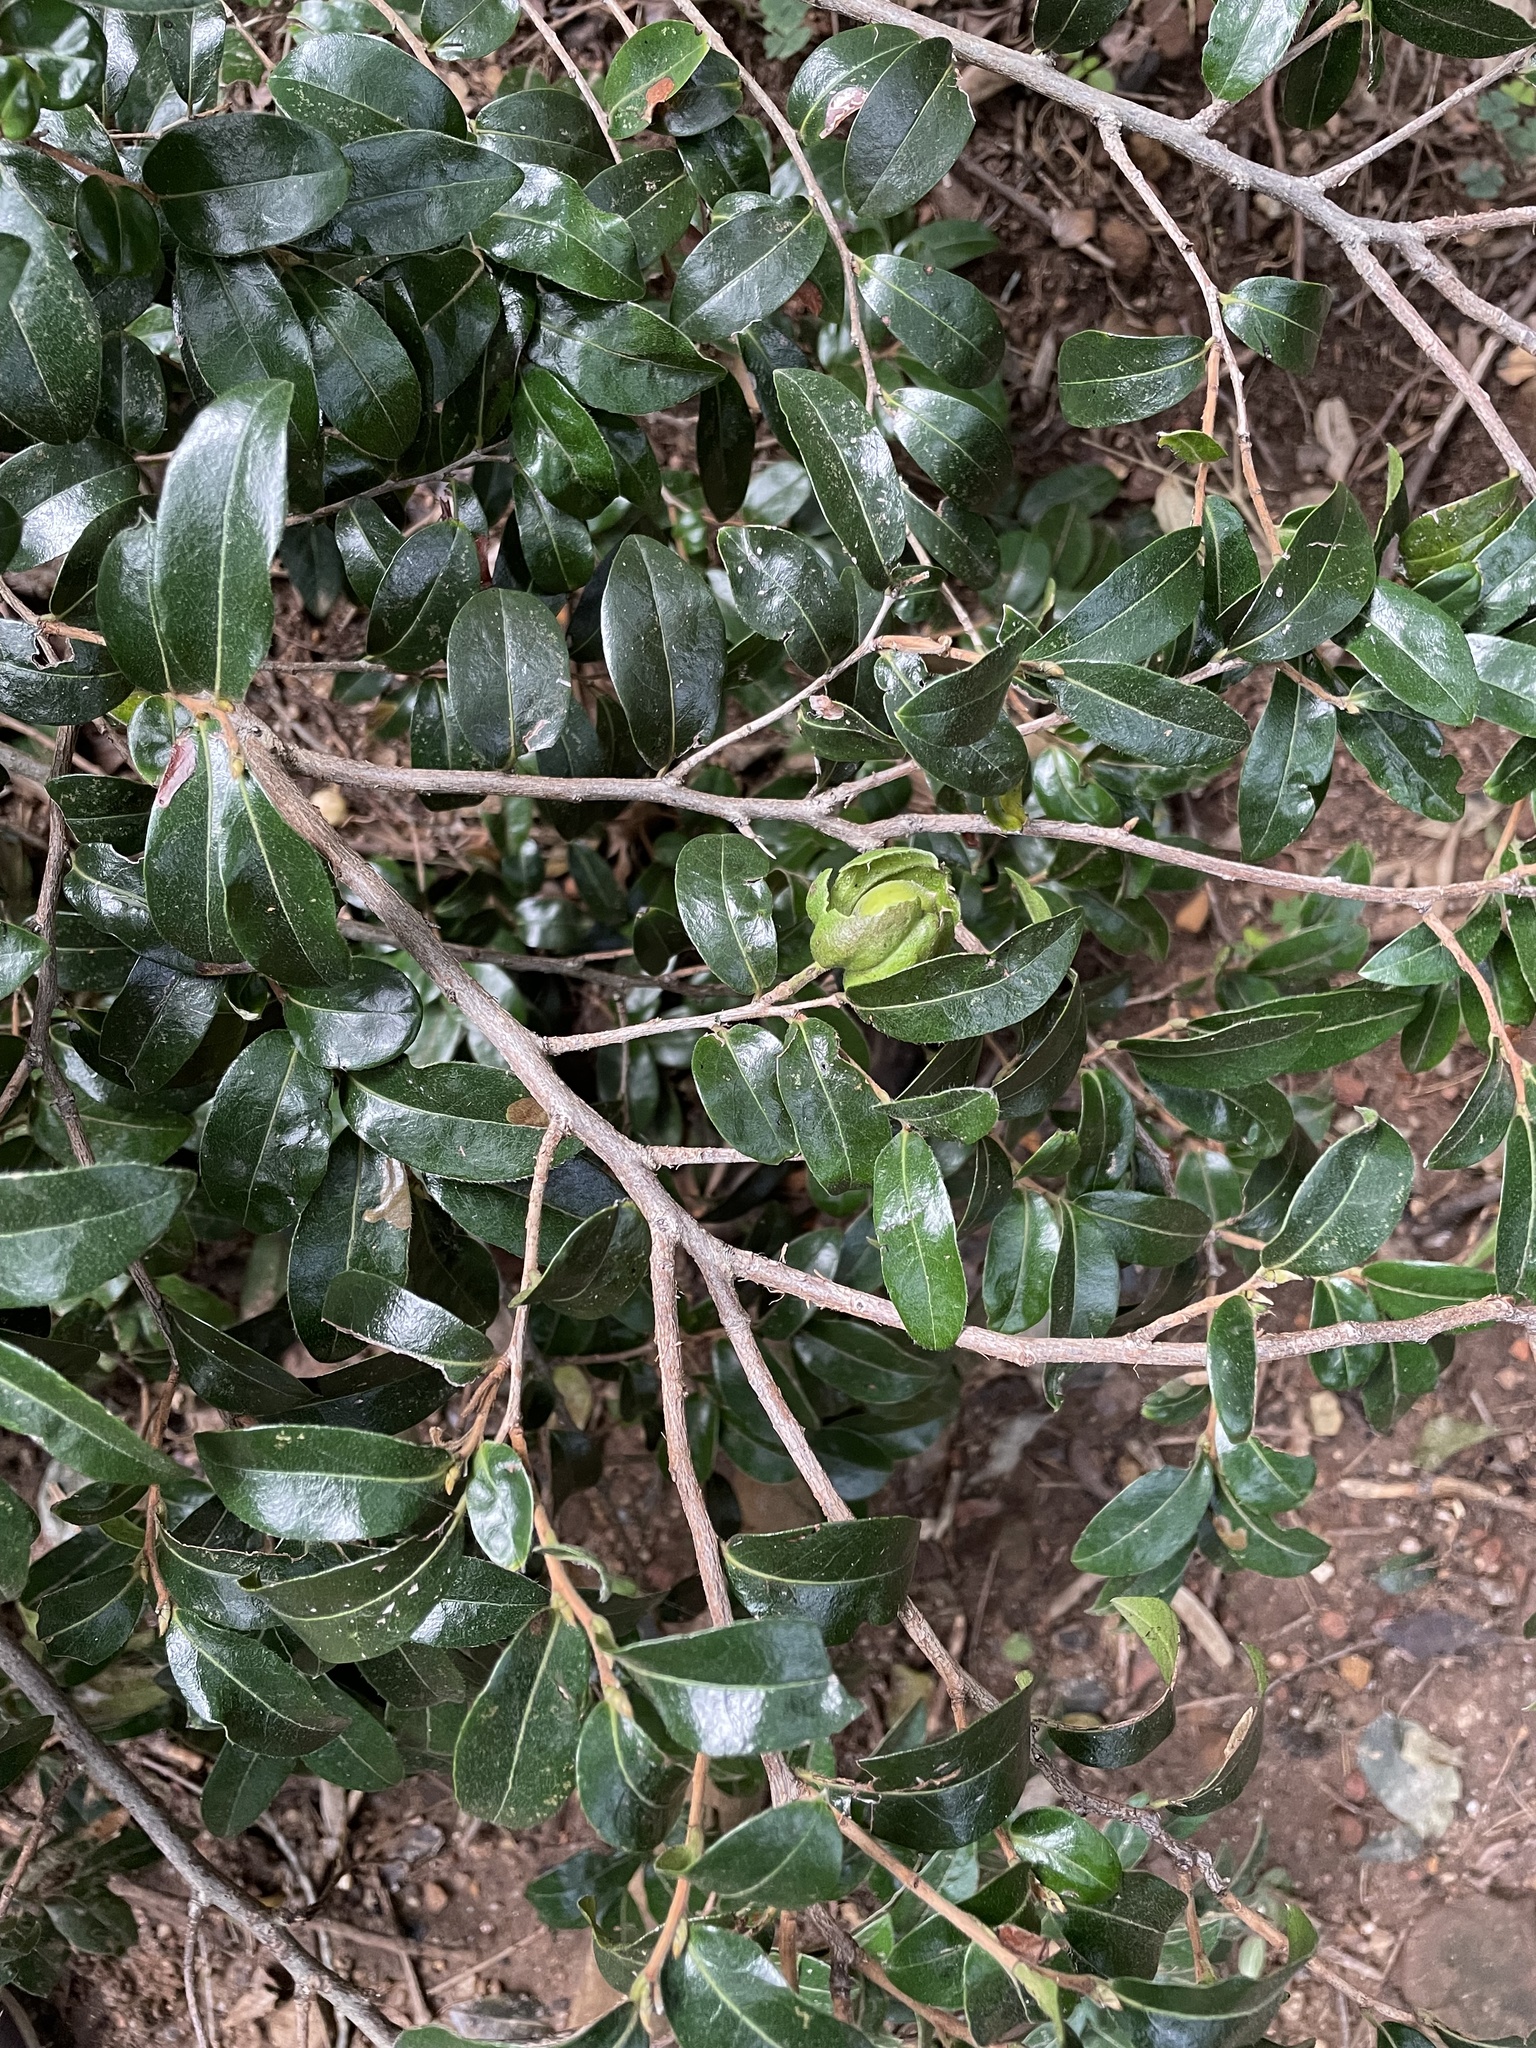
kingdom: Plantae
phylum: Tracheophyta
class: Magnoliopsida
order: Ericales
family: Ebenaceae
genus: Diospyros
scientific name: Diospyros whyteana
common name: Bladder-nut
